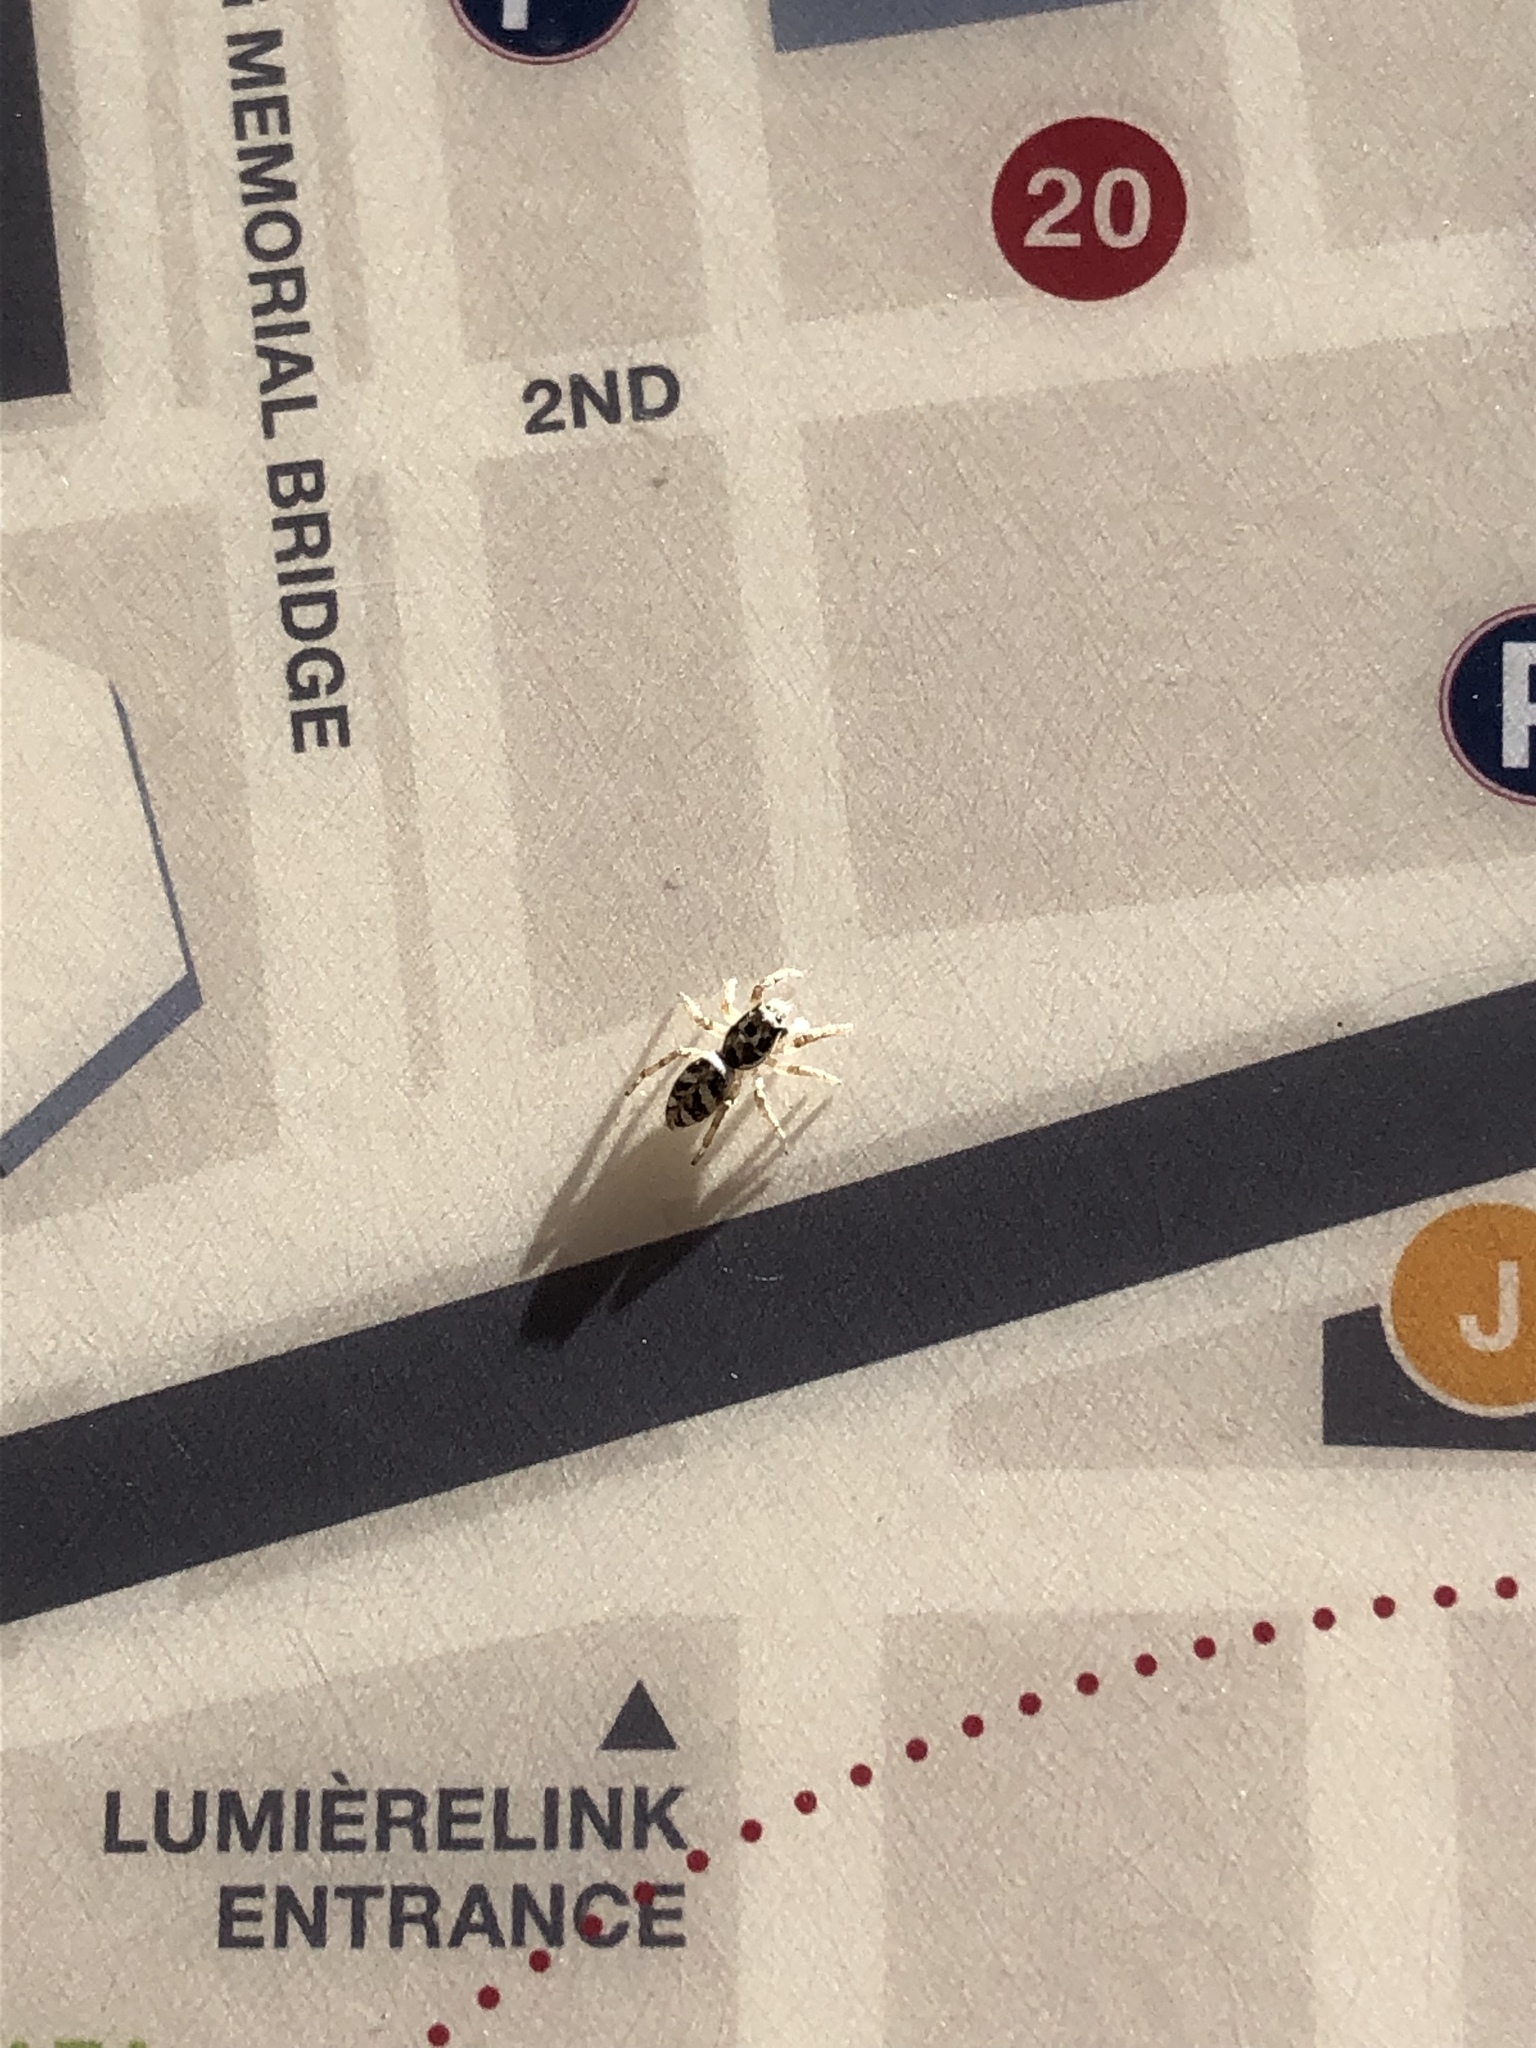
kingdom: Animalia
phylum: Arthropoda
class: Arachnida
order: Araneae
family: Salticidae
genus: Salticus
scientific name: Salticus scenicus
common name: Zebra jumper
